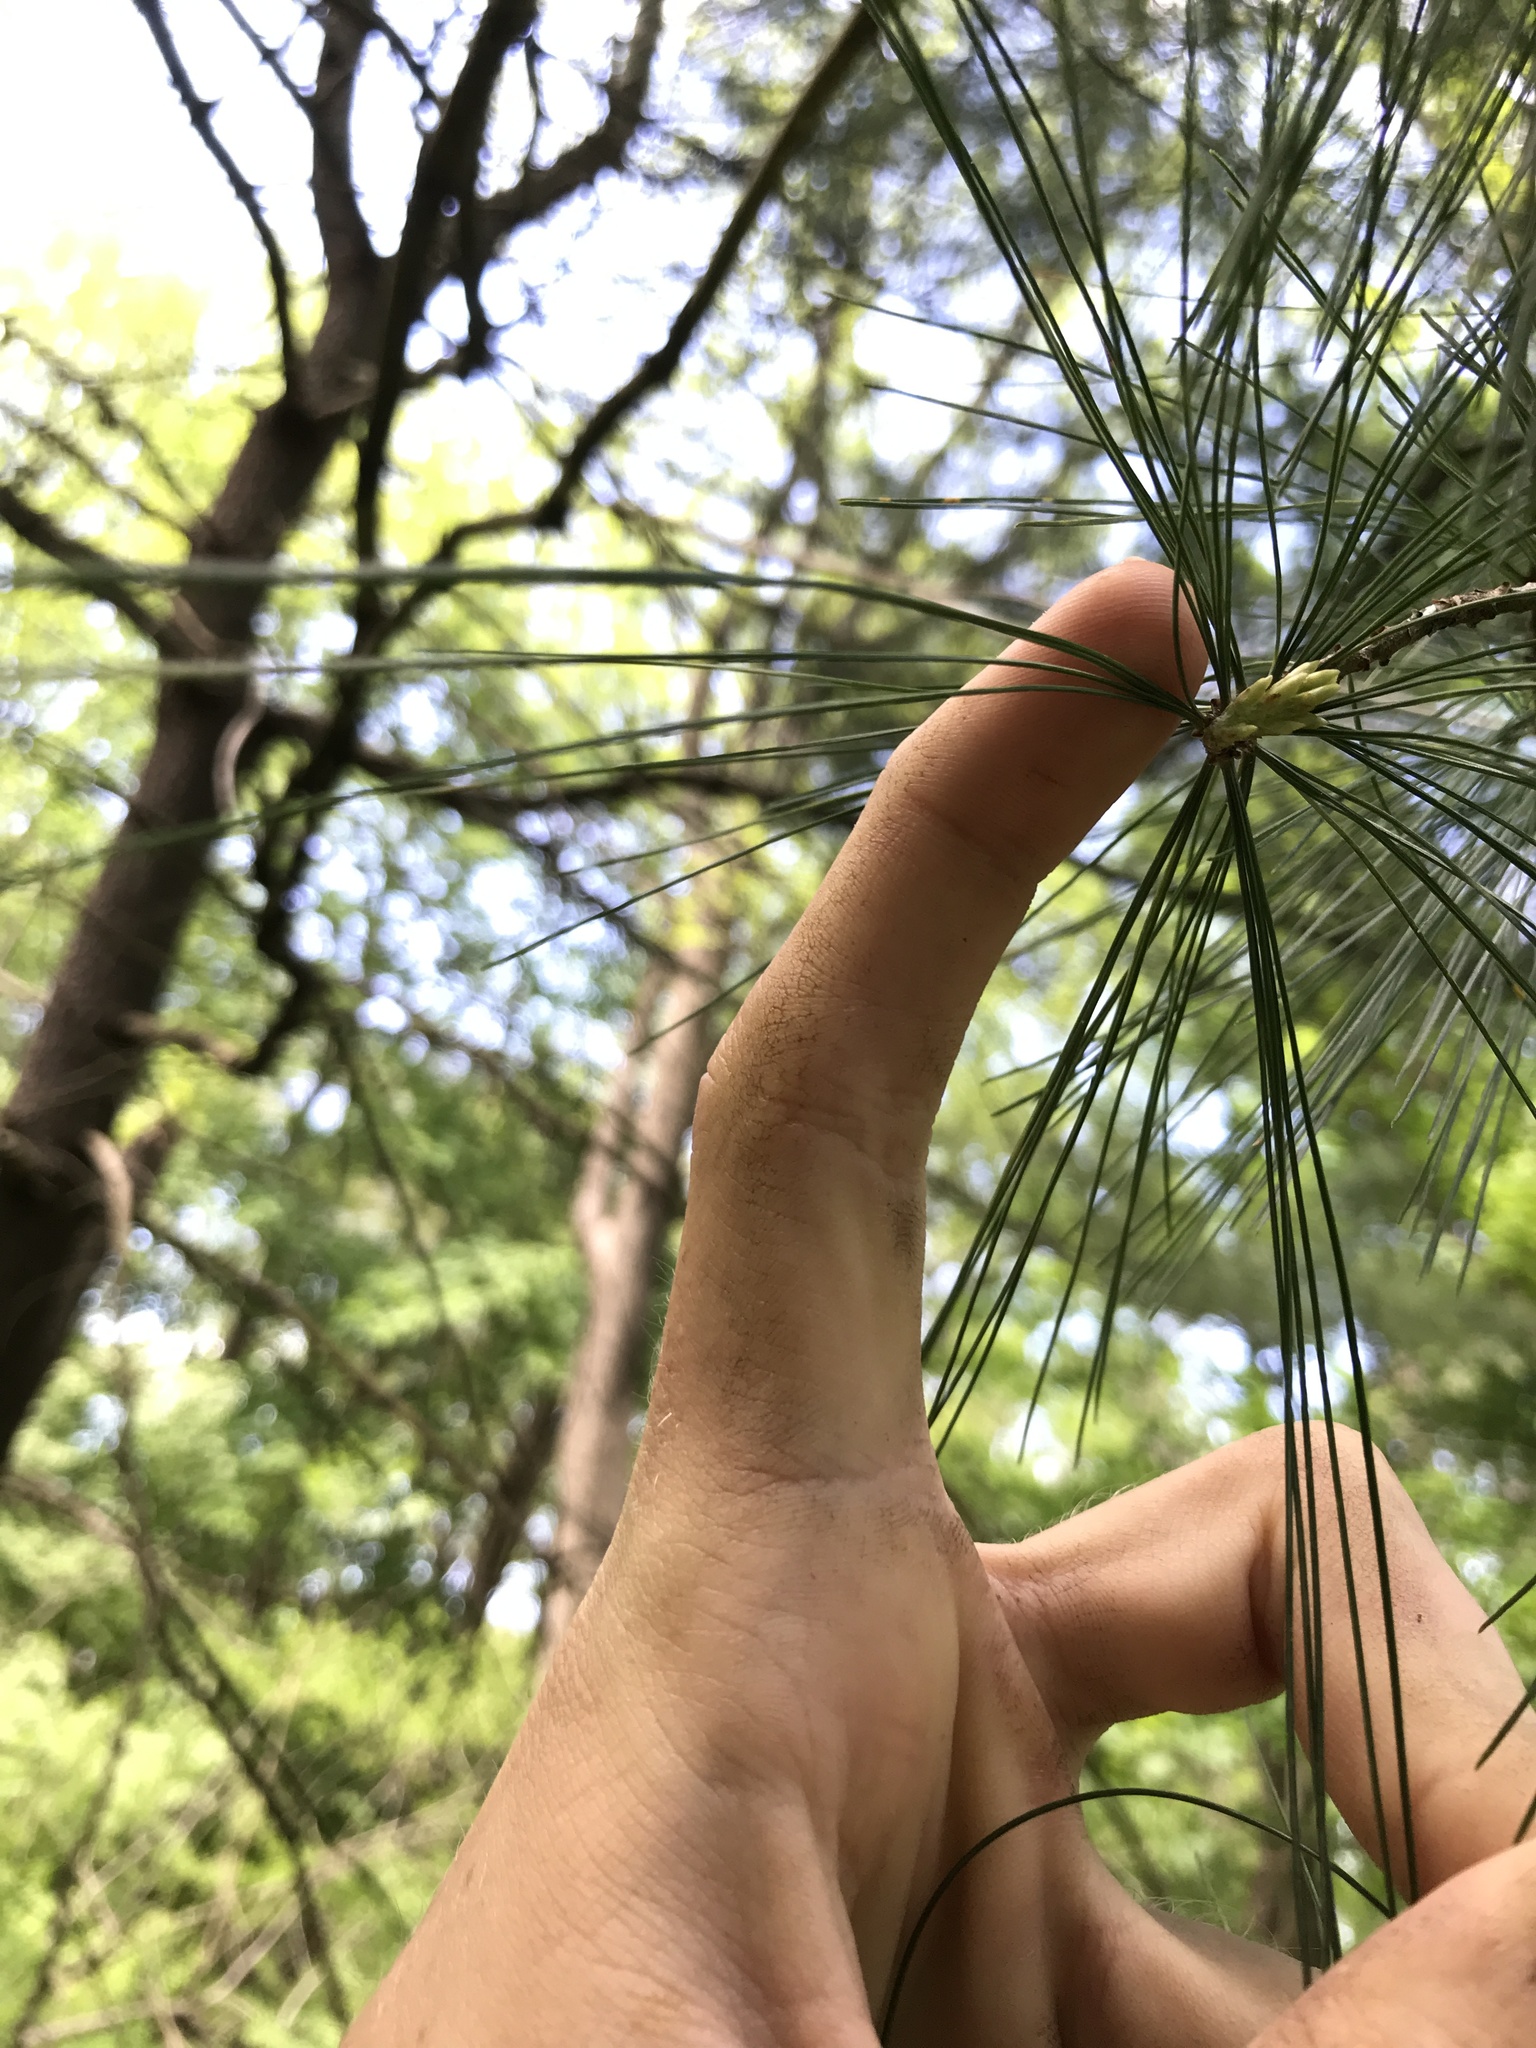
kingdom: Plantae
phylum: Tracheophyta
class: Pinopsida
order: Pinales
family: Pinaceae
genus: Pinus
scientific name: Pinus strobus
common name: Weymouth pine
